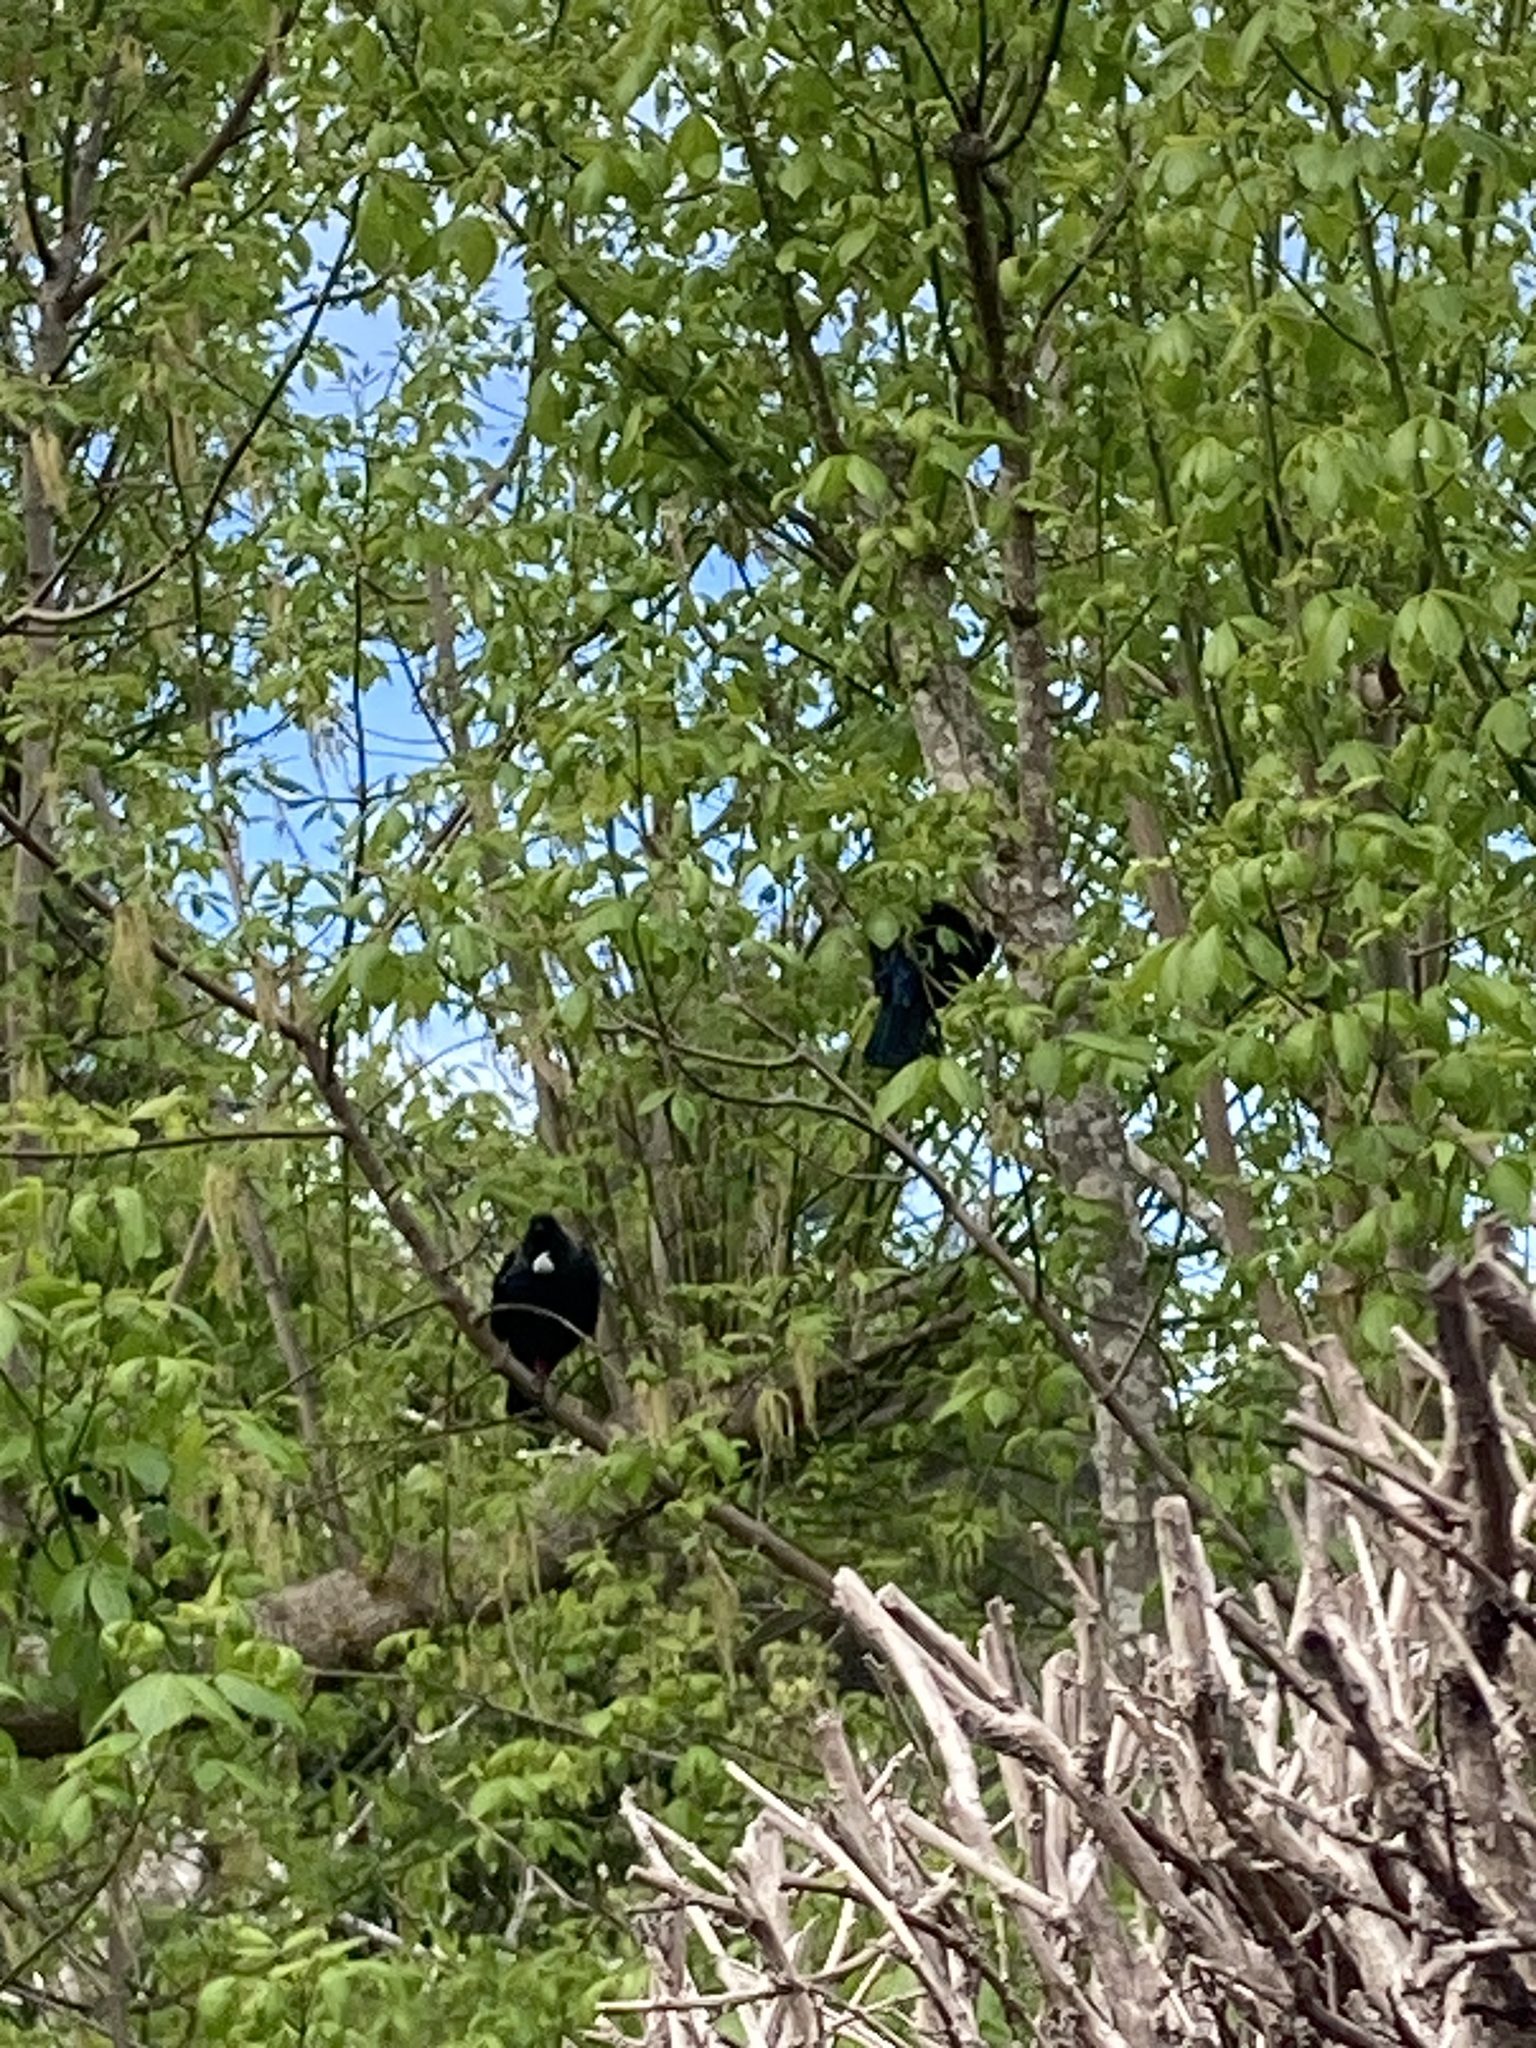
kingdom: Animalia
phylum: Chordata
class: Aves
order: Passeriformes
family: Meliphagidae
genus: Prosthemadera
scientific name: Prosthemadera novaeseelandiae
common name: Tui
